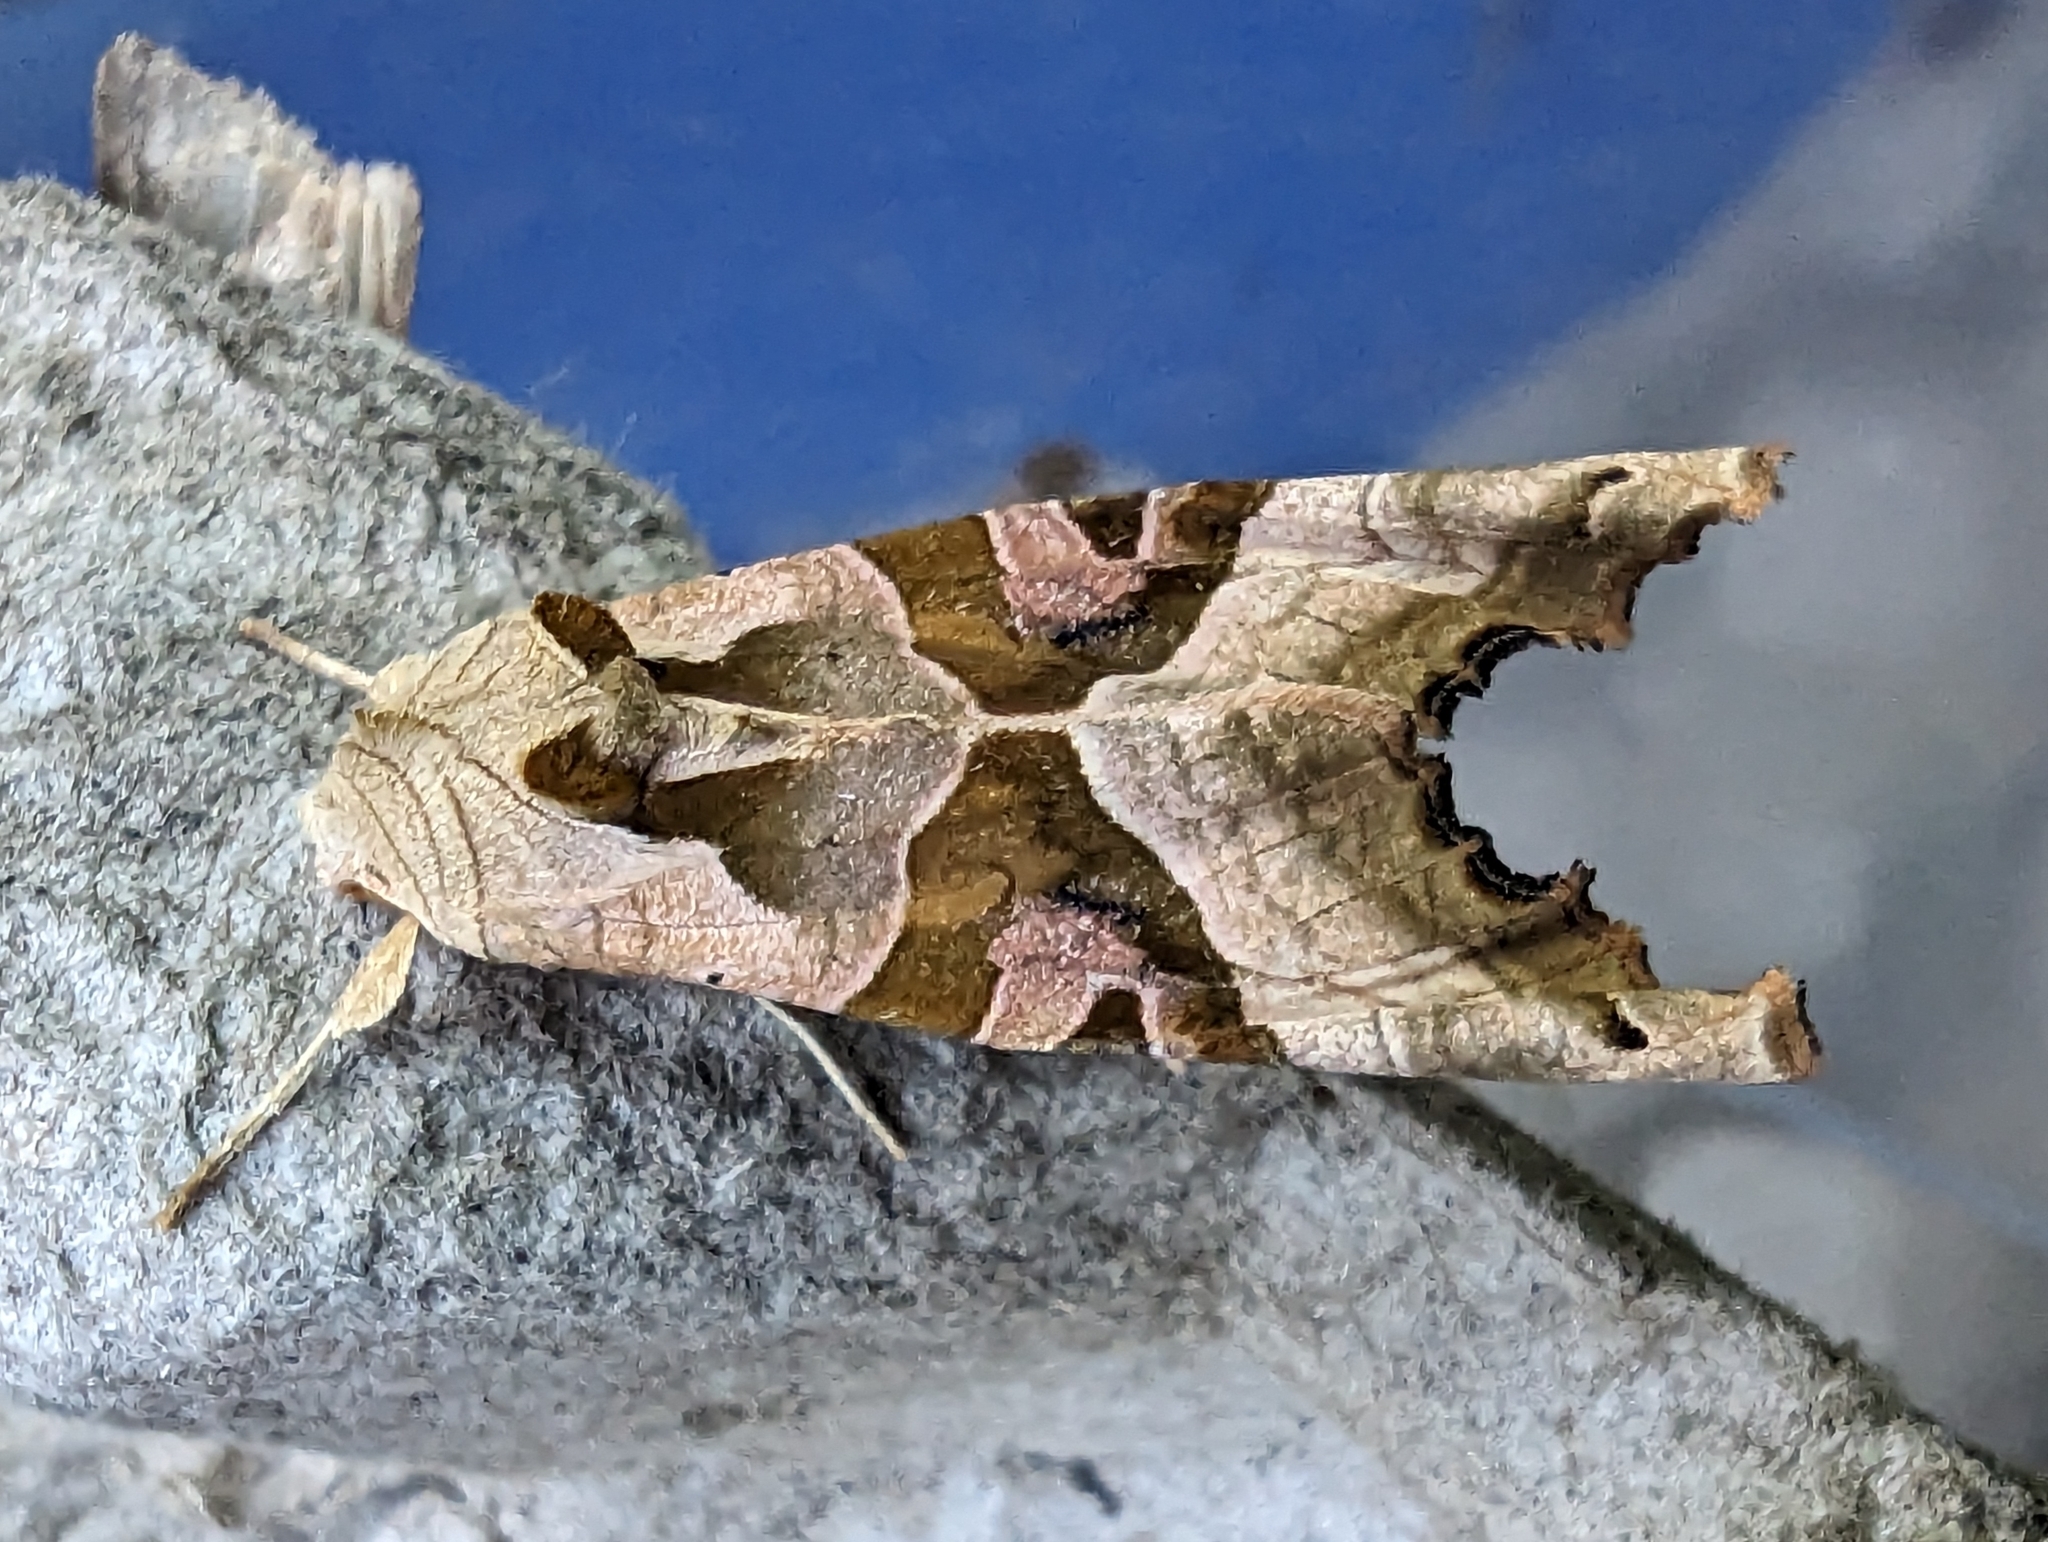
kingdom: Animalia
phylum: Arthropoda
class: Insecta
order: Lepidoptera
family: Noctuidae
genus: Phlogophora
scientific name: Phlogophora meticulosa
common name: Angle shades
